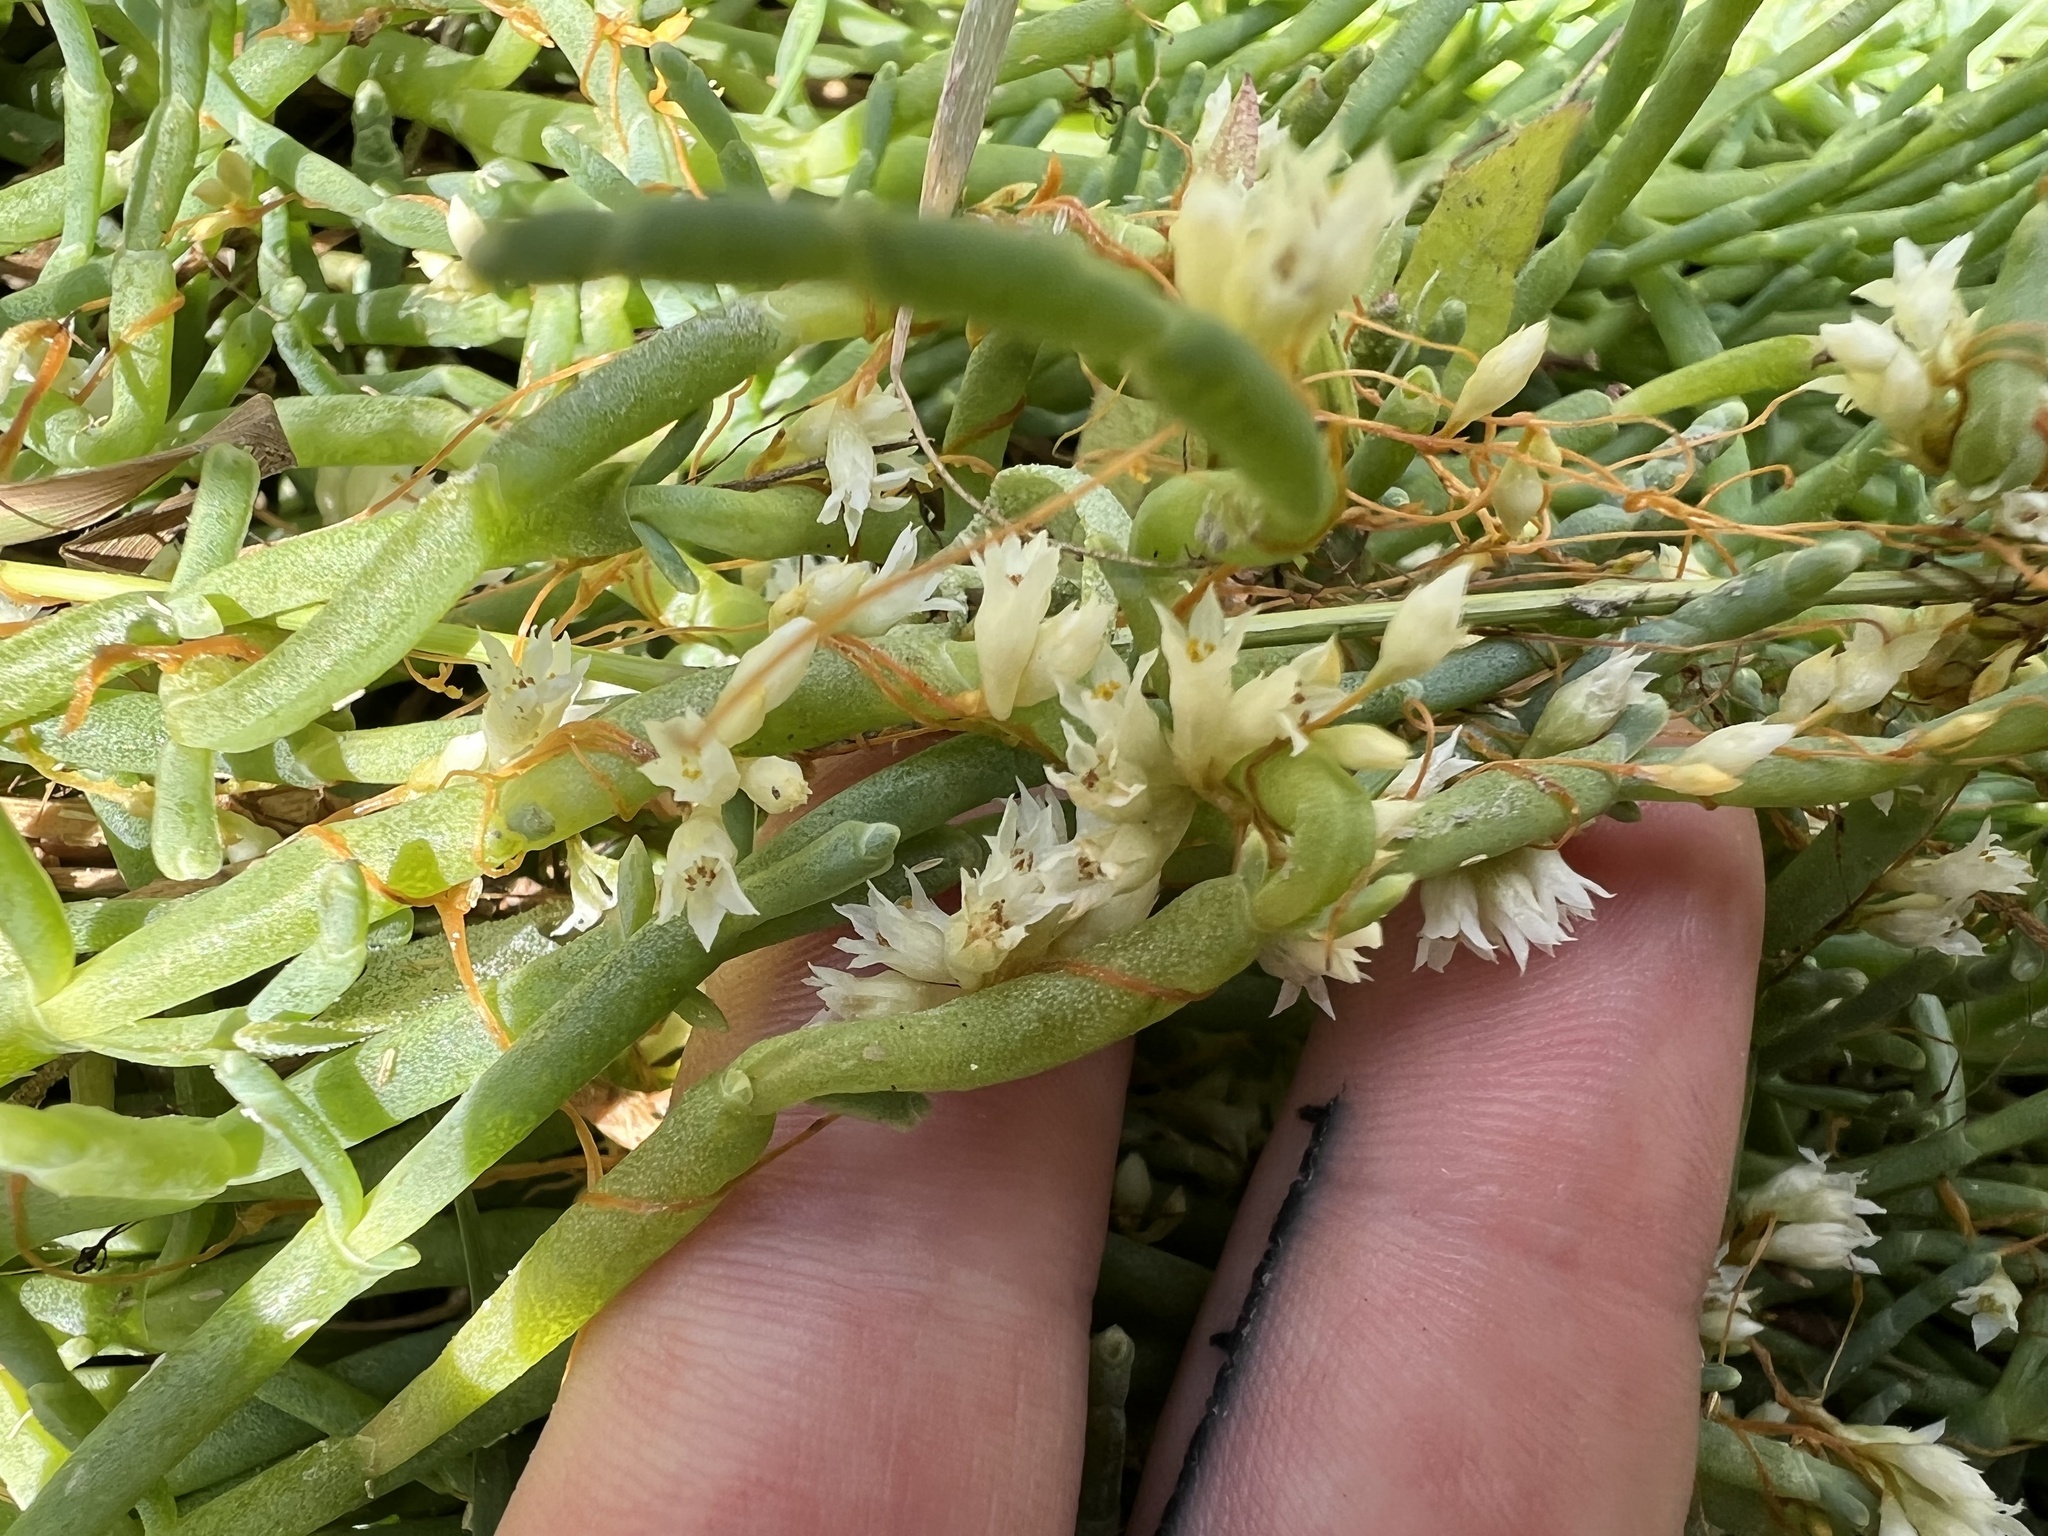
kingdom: Plantae
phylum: Tracheophyta
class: Magnoliopsida
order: Solanales
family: Convolvulaceae
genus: Cuscuta
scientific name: Cuscuta pacifica
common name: Large saltmarsh dodder
